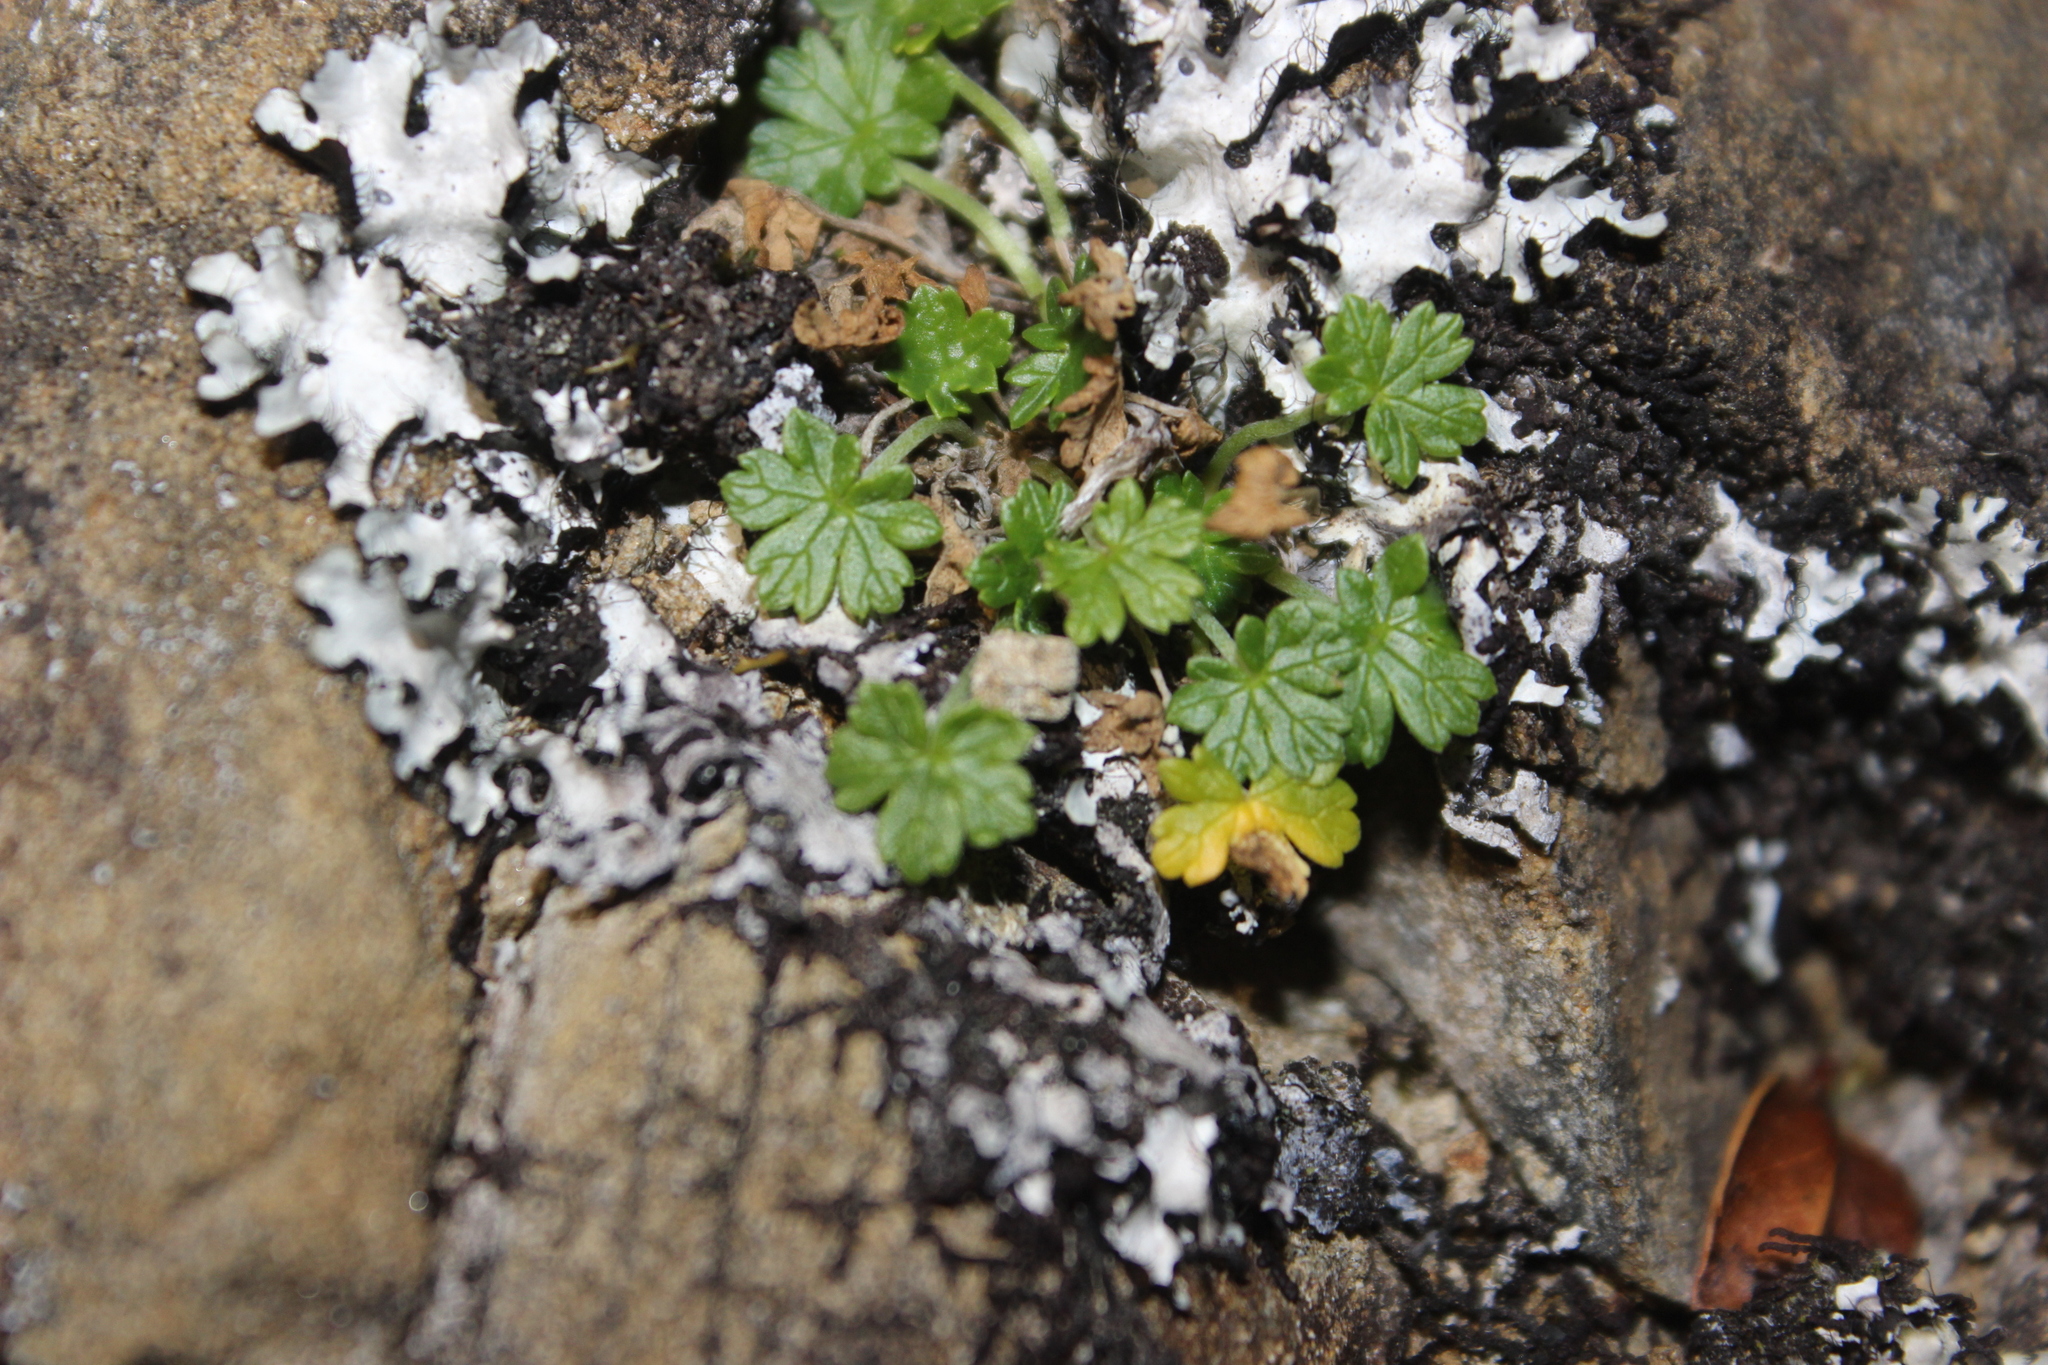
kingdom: Plantae
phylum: Tracheophyta
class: Magnoliopsida
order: Geraniales
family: Geraniaceae
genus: Geranium
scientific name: Geranium brevicaule
